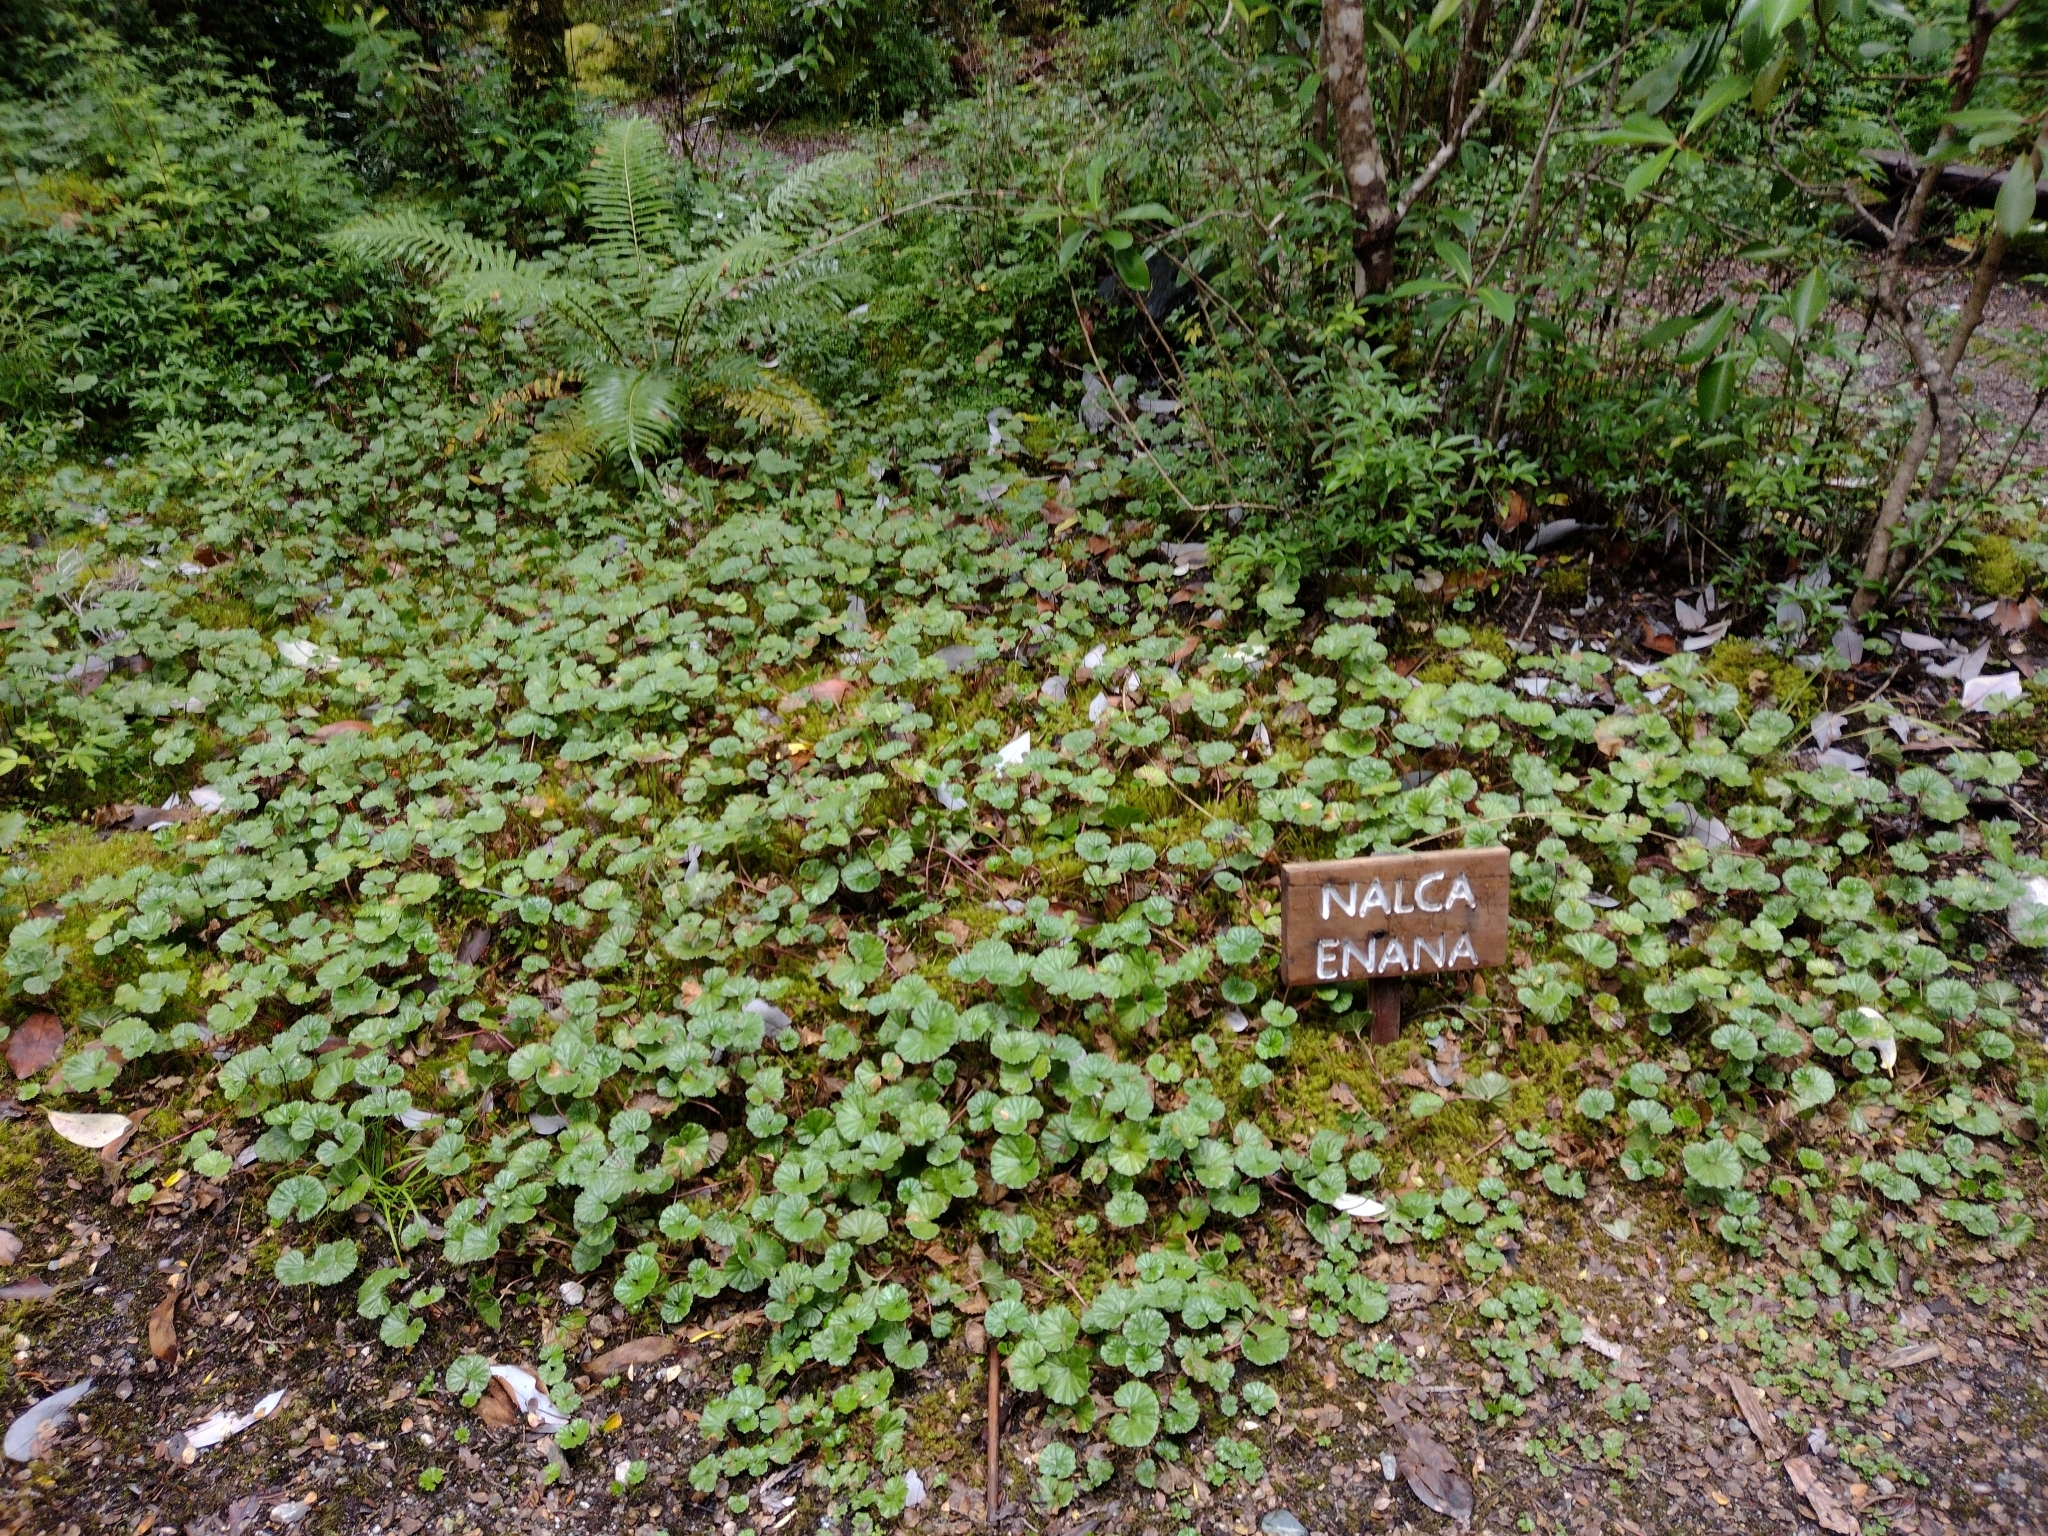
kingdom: Plantae
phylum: Tracheophyta
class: Magnoliopsida
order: Gunnerales
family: Gunneraceae
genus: Gunnera
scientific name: Gunnera magellanica
